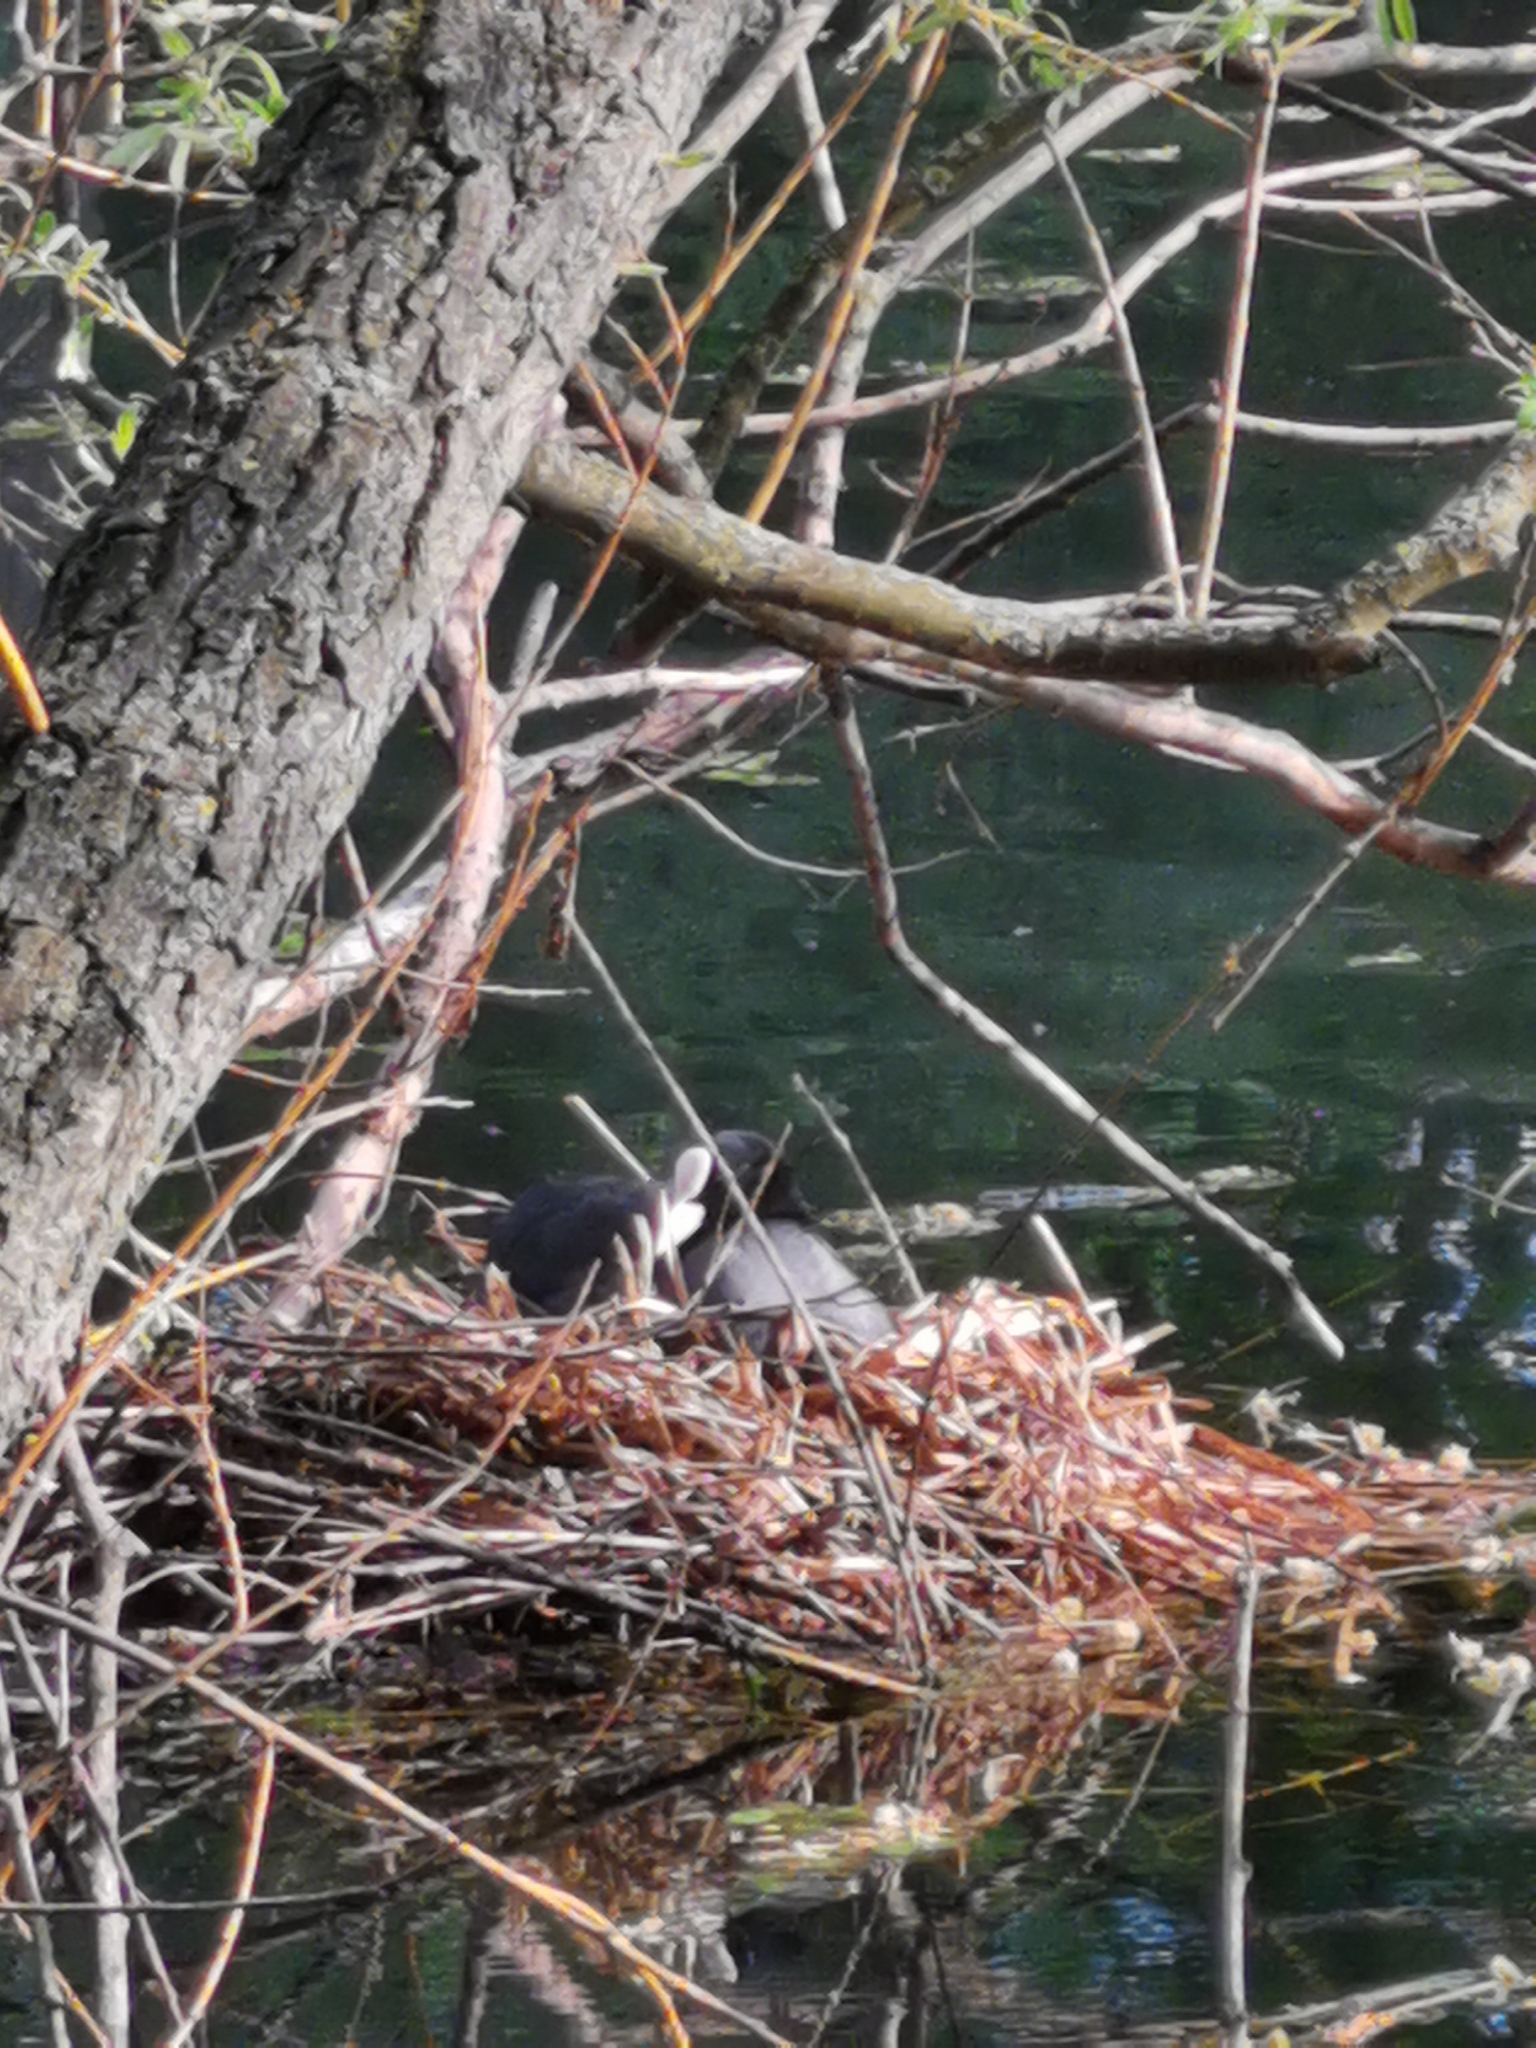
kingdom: Animalia
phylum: Chordata
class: Aves
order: Gruiformes
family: Rallidae
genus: Fulica
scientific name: Fulica atra
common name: Eurasian coot
